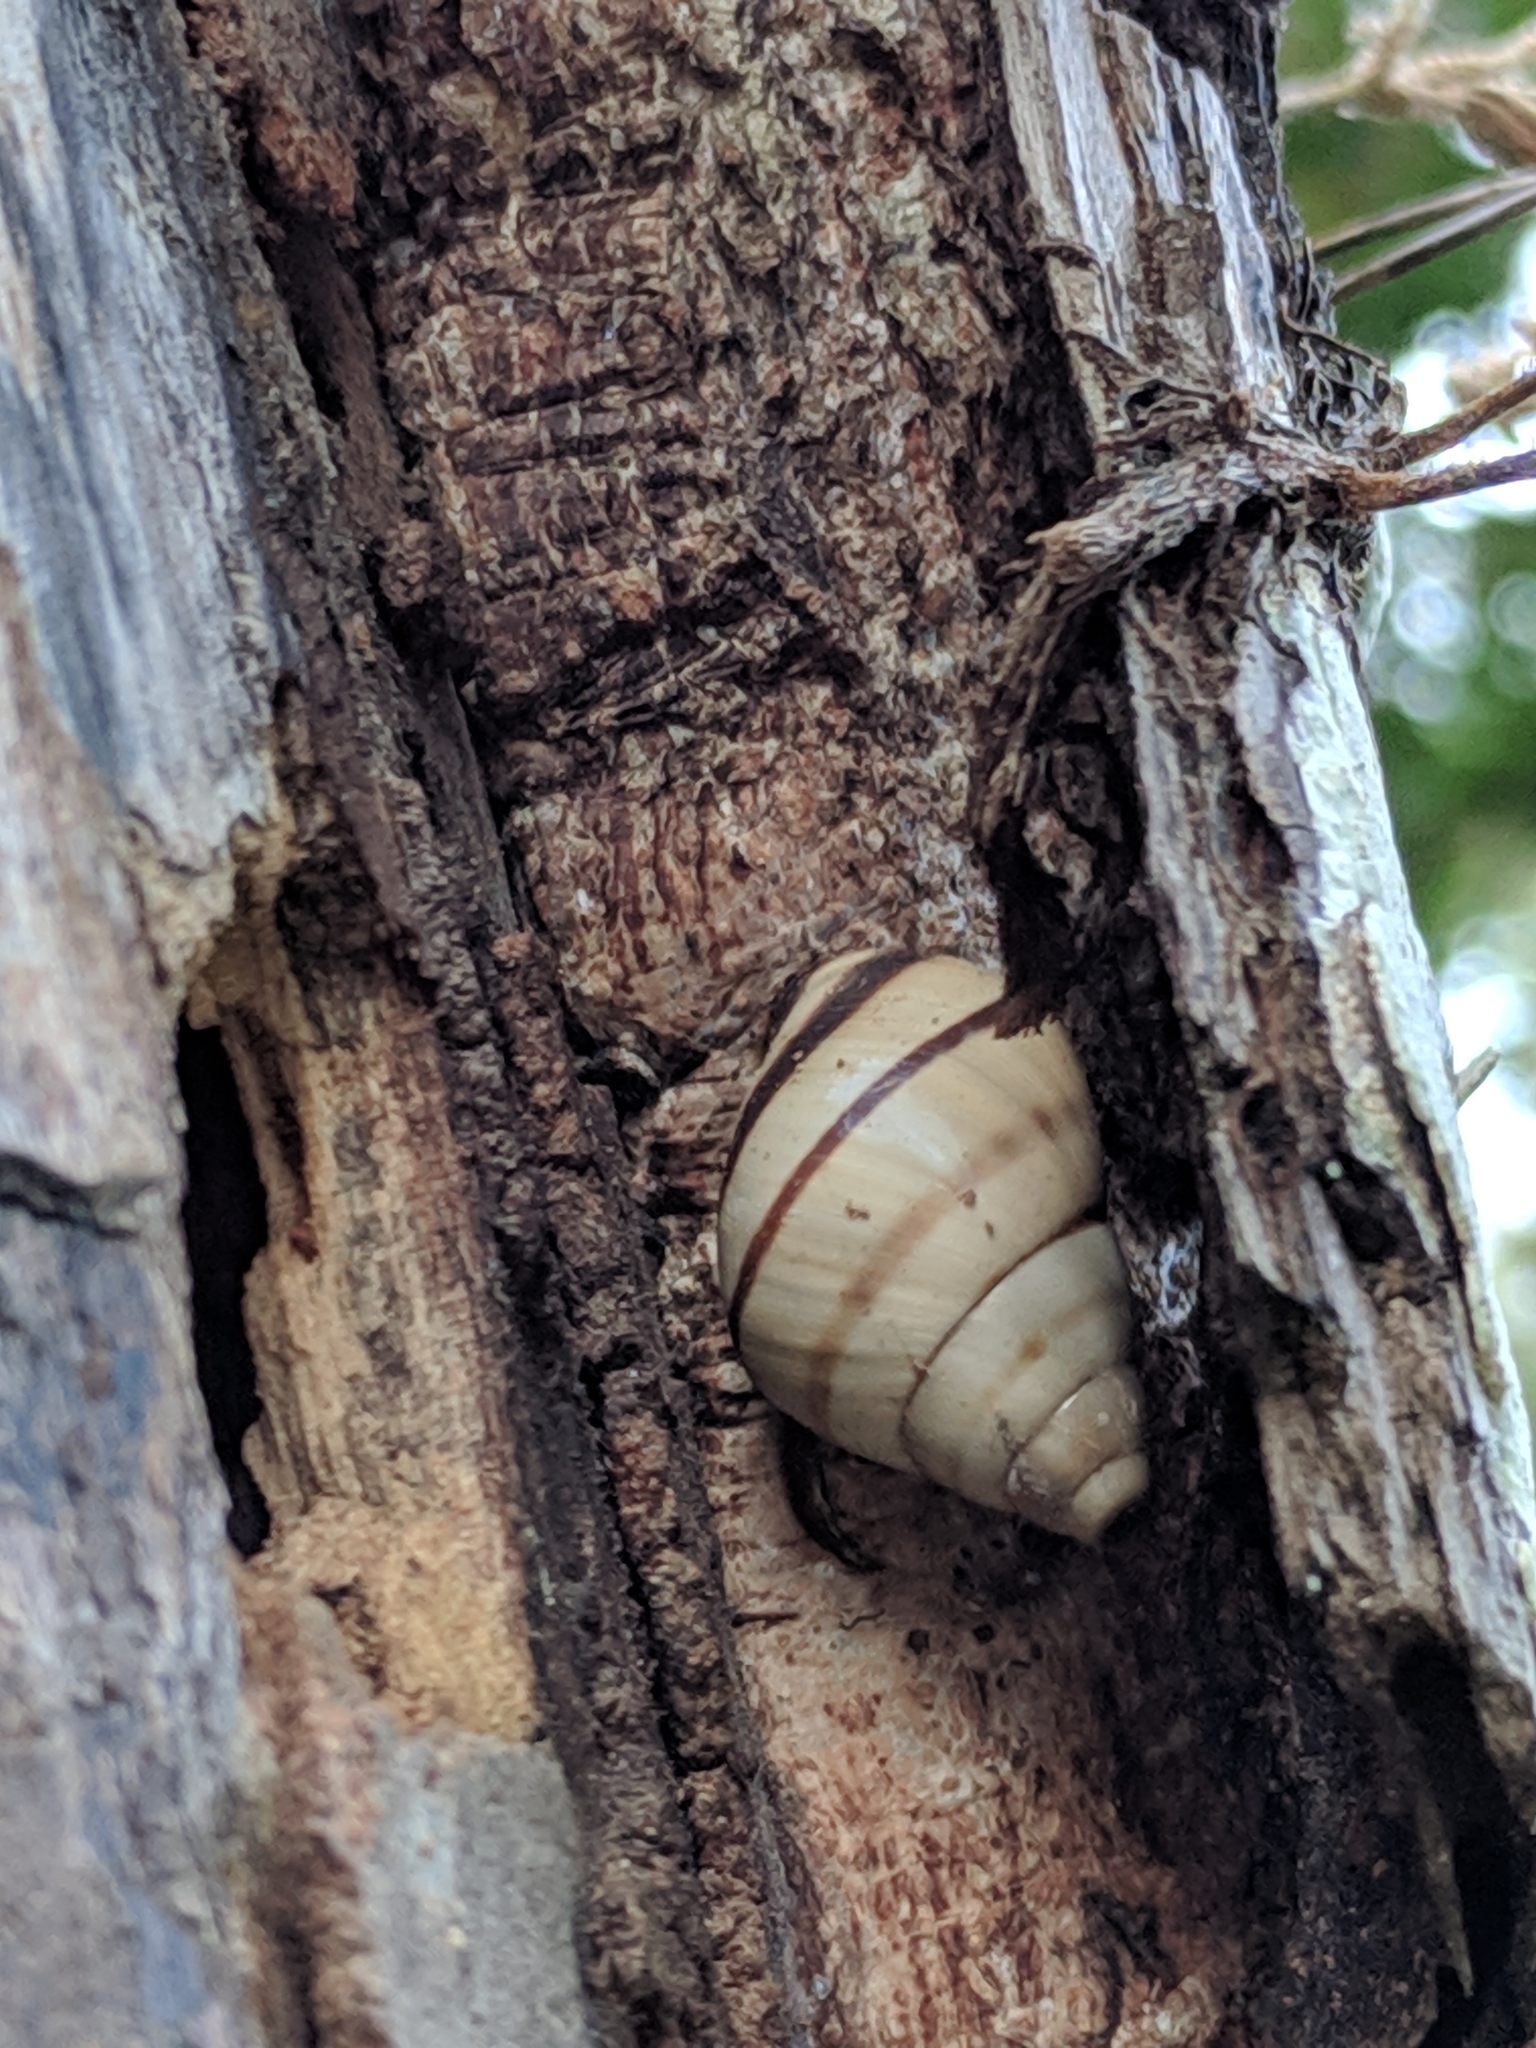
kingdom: Animalia
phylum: Mollusca
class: Gastropoda
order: Stylommatophora
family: Orthalicidae
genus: Orthalicus
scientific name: Orthalicus floridensis
